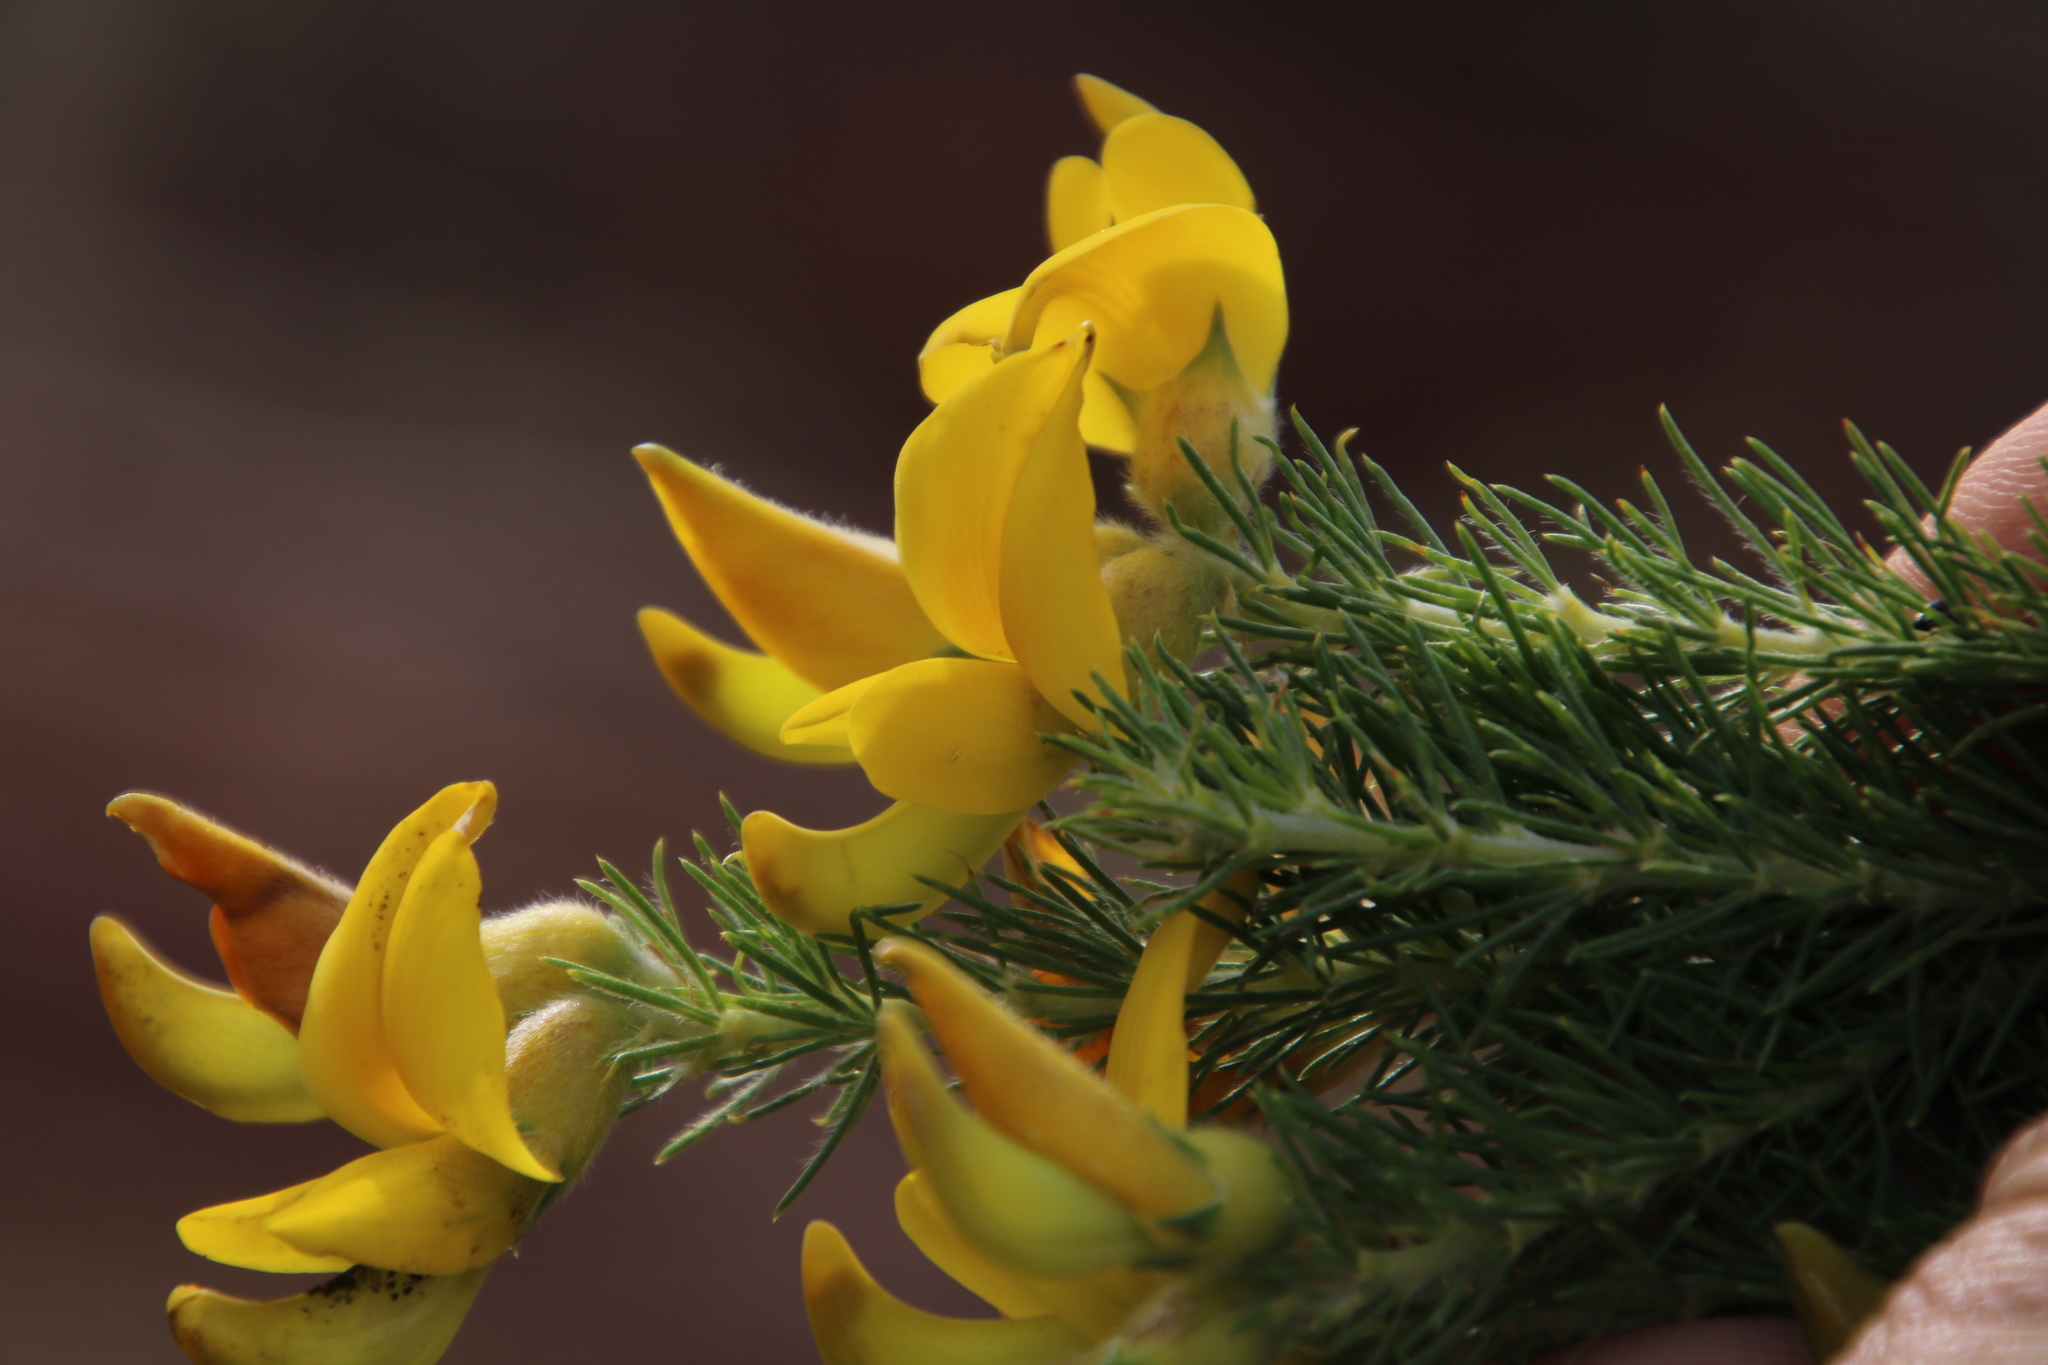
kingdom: Plantae
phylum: Tracheophyta
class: Magnoliopsida
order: Fabales
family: Fabaceae
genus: Aspalathus
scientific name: Aspalathus macrantha
